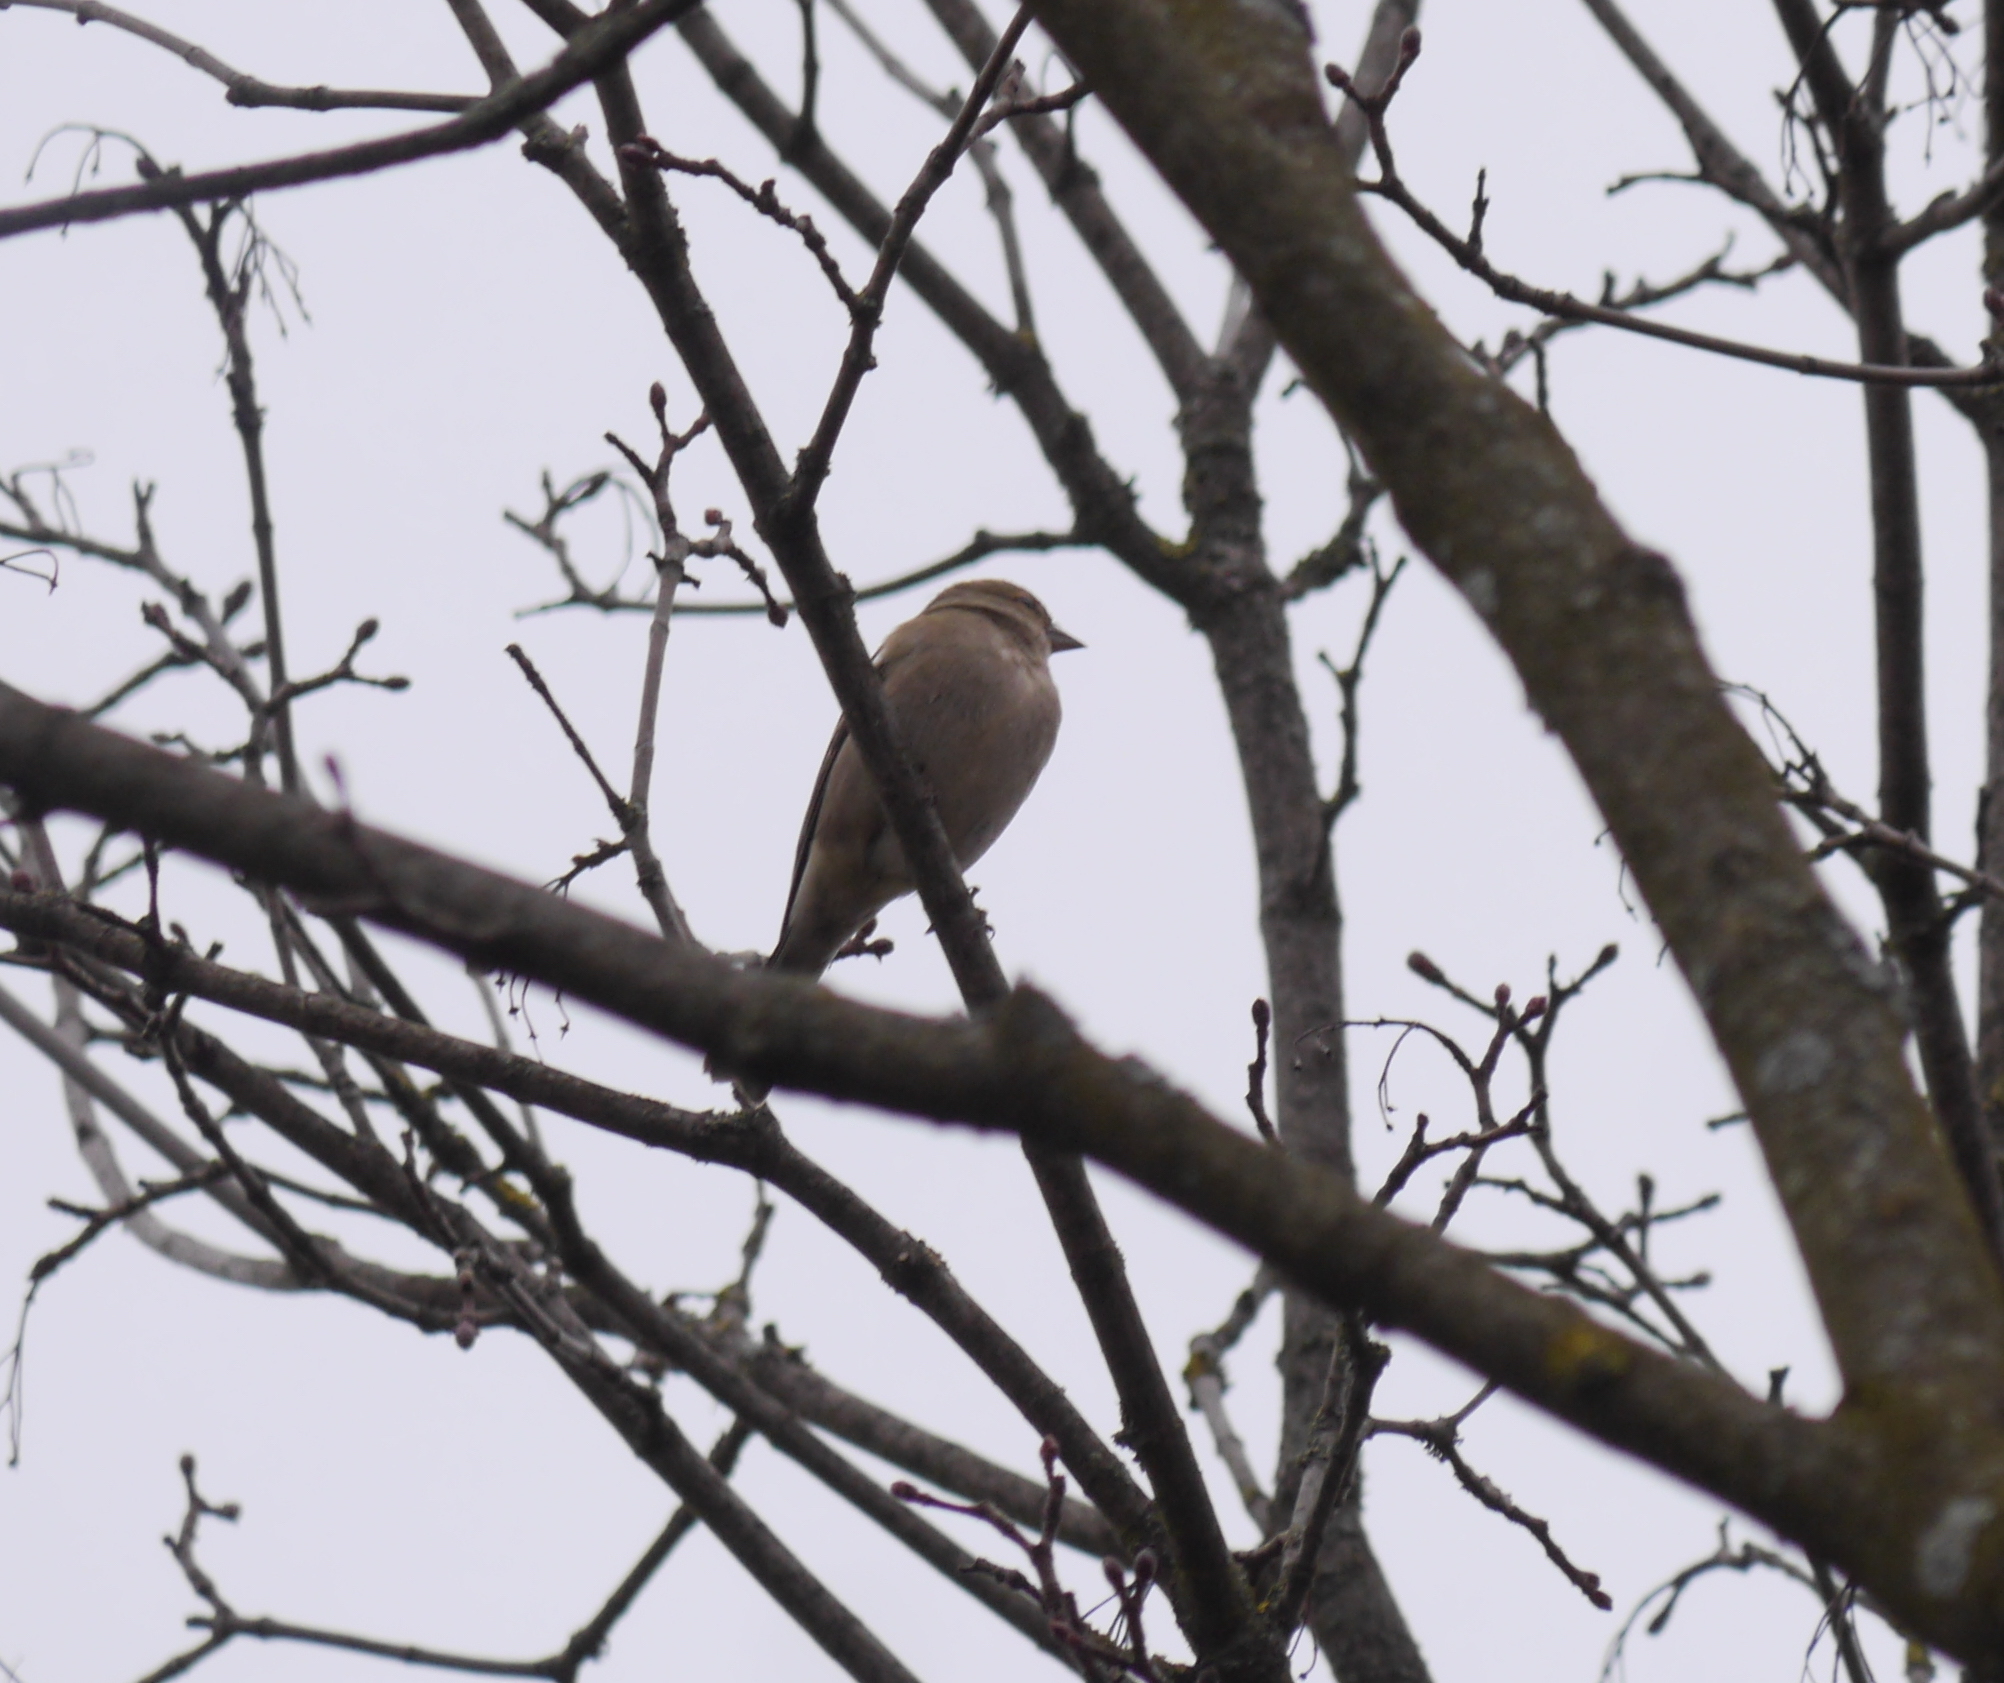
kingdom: Animalia
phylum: Chordata
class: Aves
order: Passeriformes
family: Fringillidae
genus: Fringilla
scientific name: Fringilla coelebs
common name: Common chaffinch
